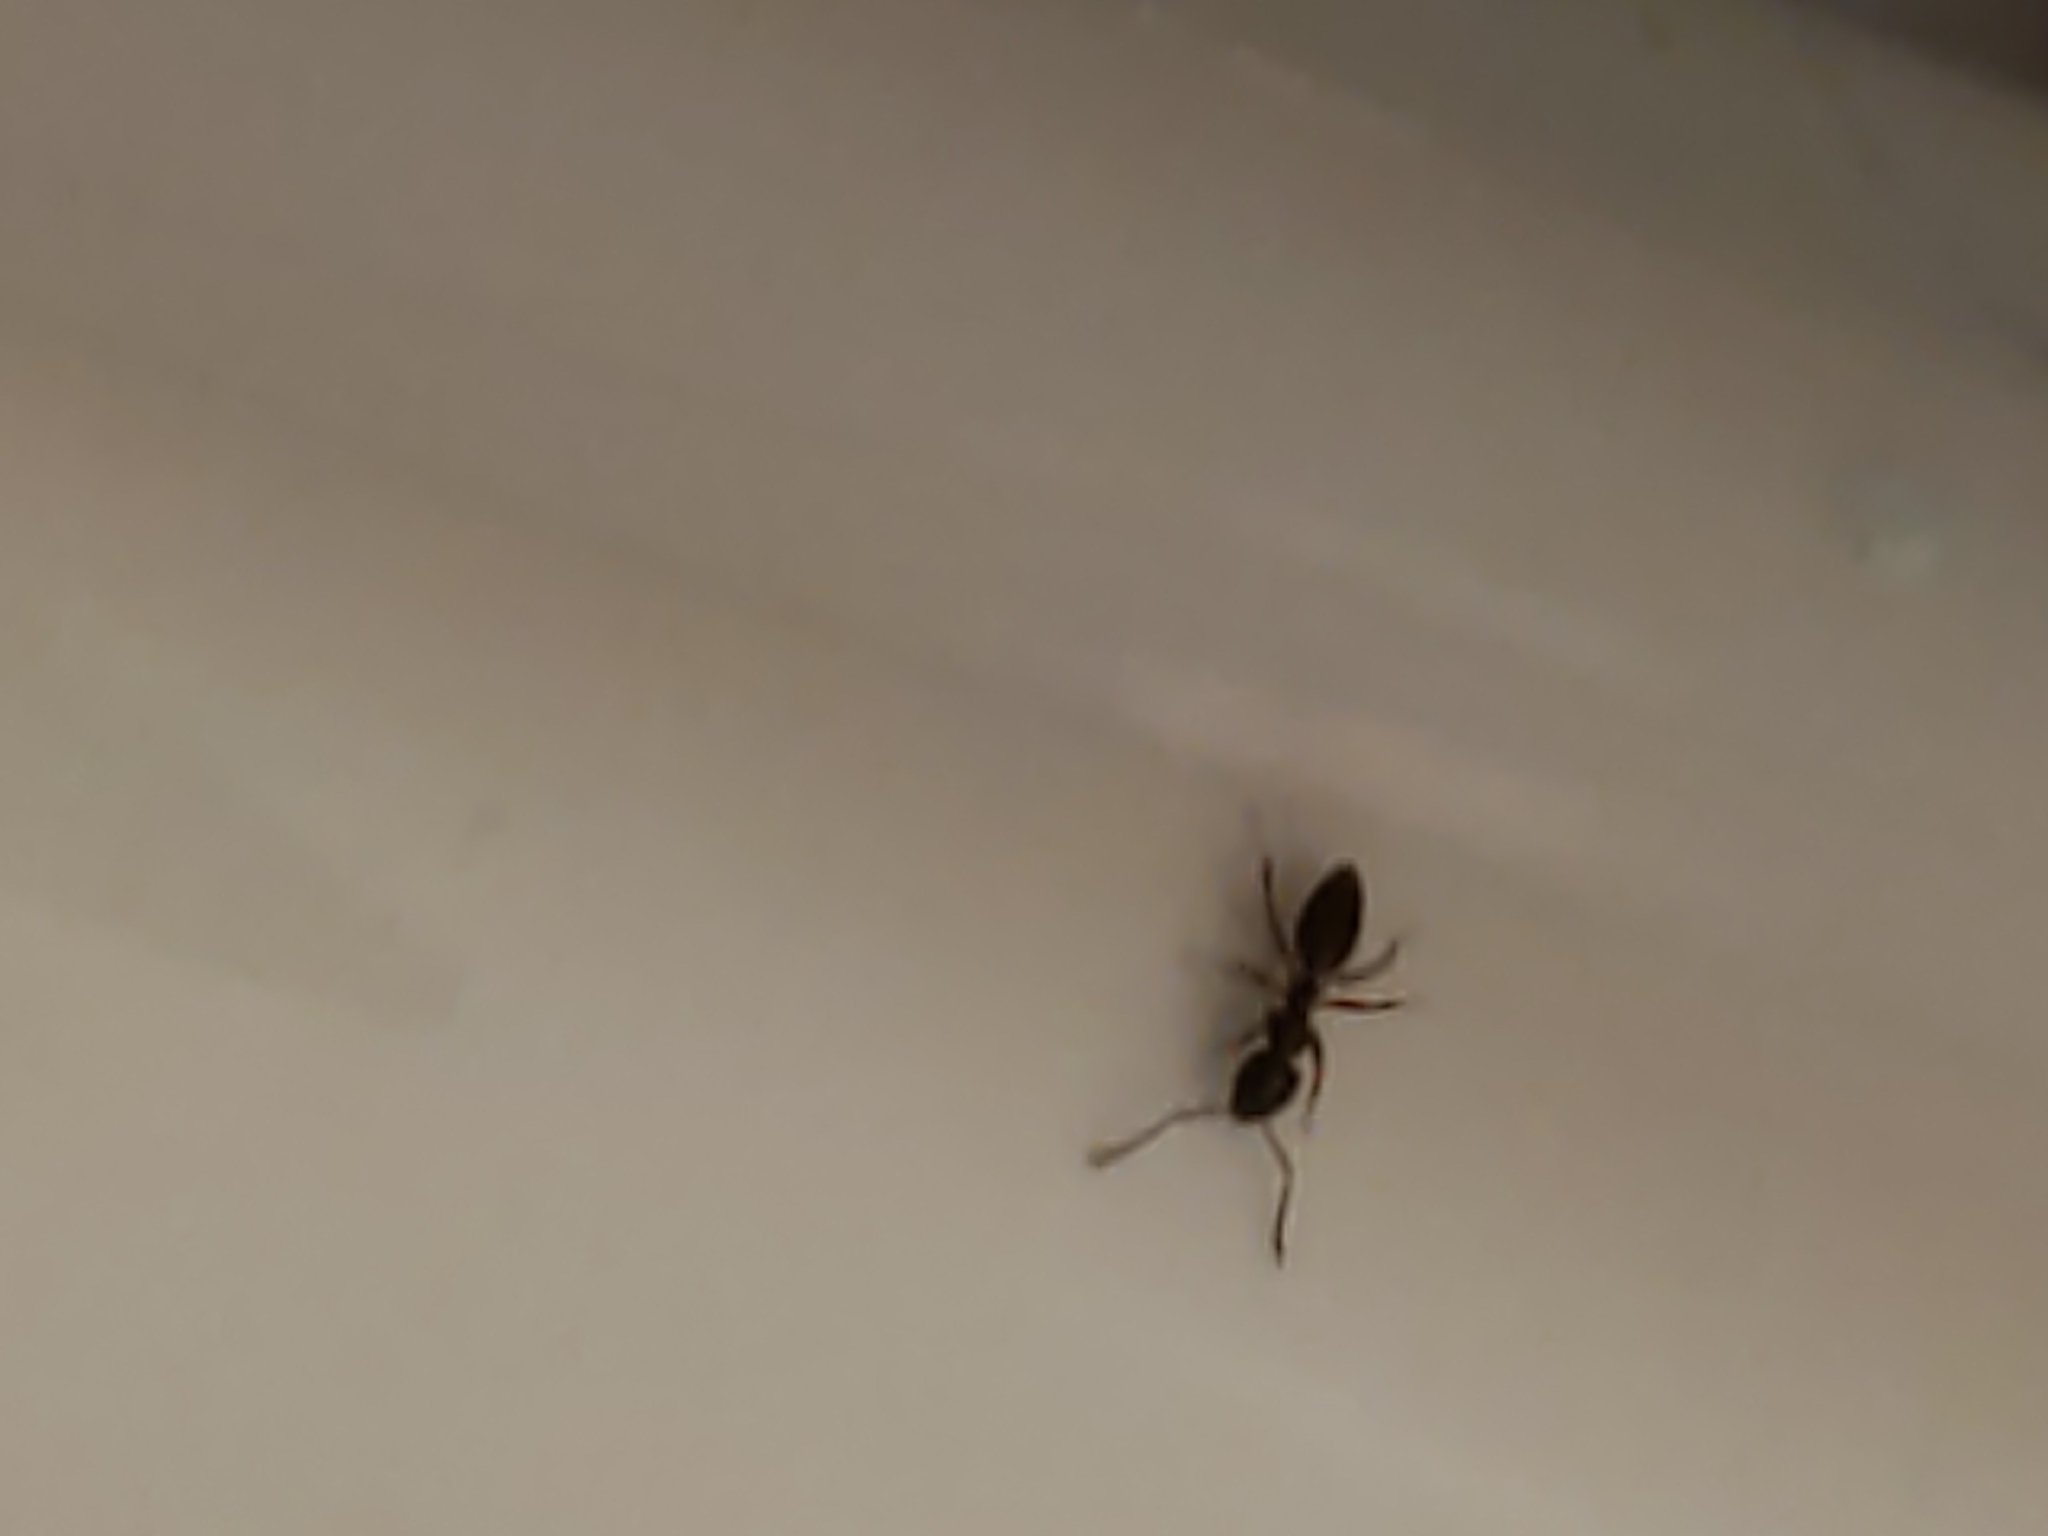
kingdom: Animalia
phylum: Arthropoda
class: Insecta
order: Hymenoptera
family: Formicidae
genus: Tapinoma
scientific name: Tapinoma sessile
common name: Odorous house ant
